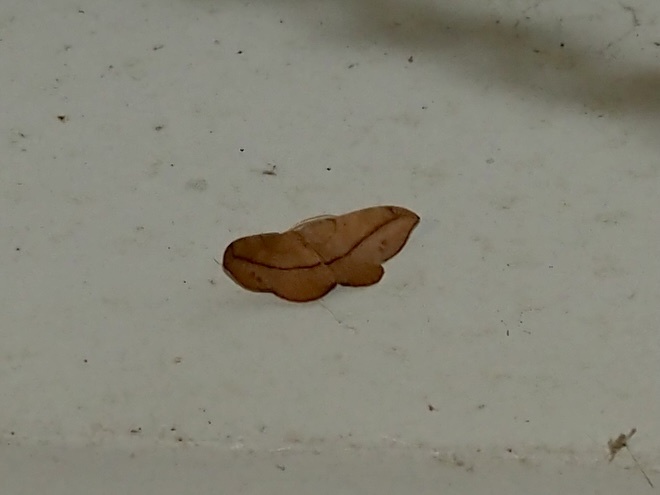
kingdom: Animalia
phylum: Arthropoda
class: Insecta
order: Lepidoptera
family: Geometridae
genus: Patalene
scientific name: Patalene olyzonaria
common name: Juniper geometer moth
